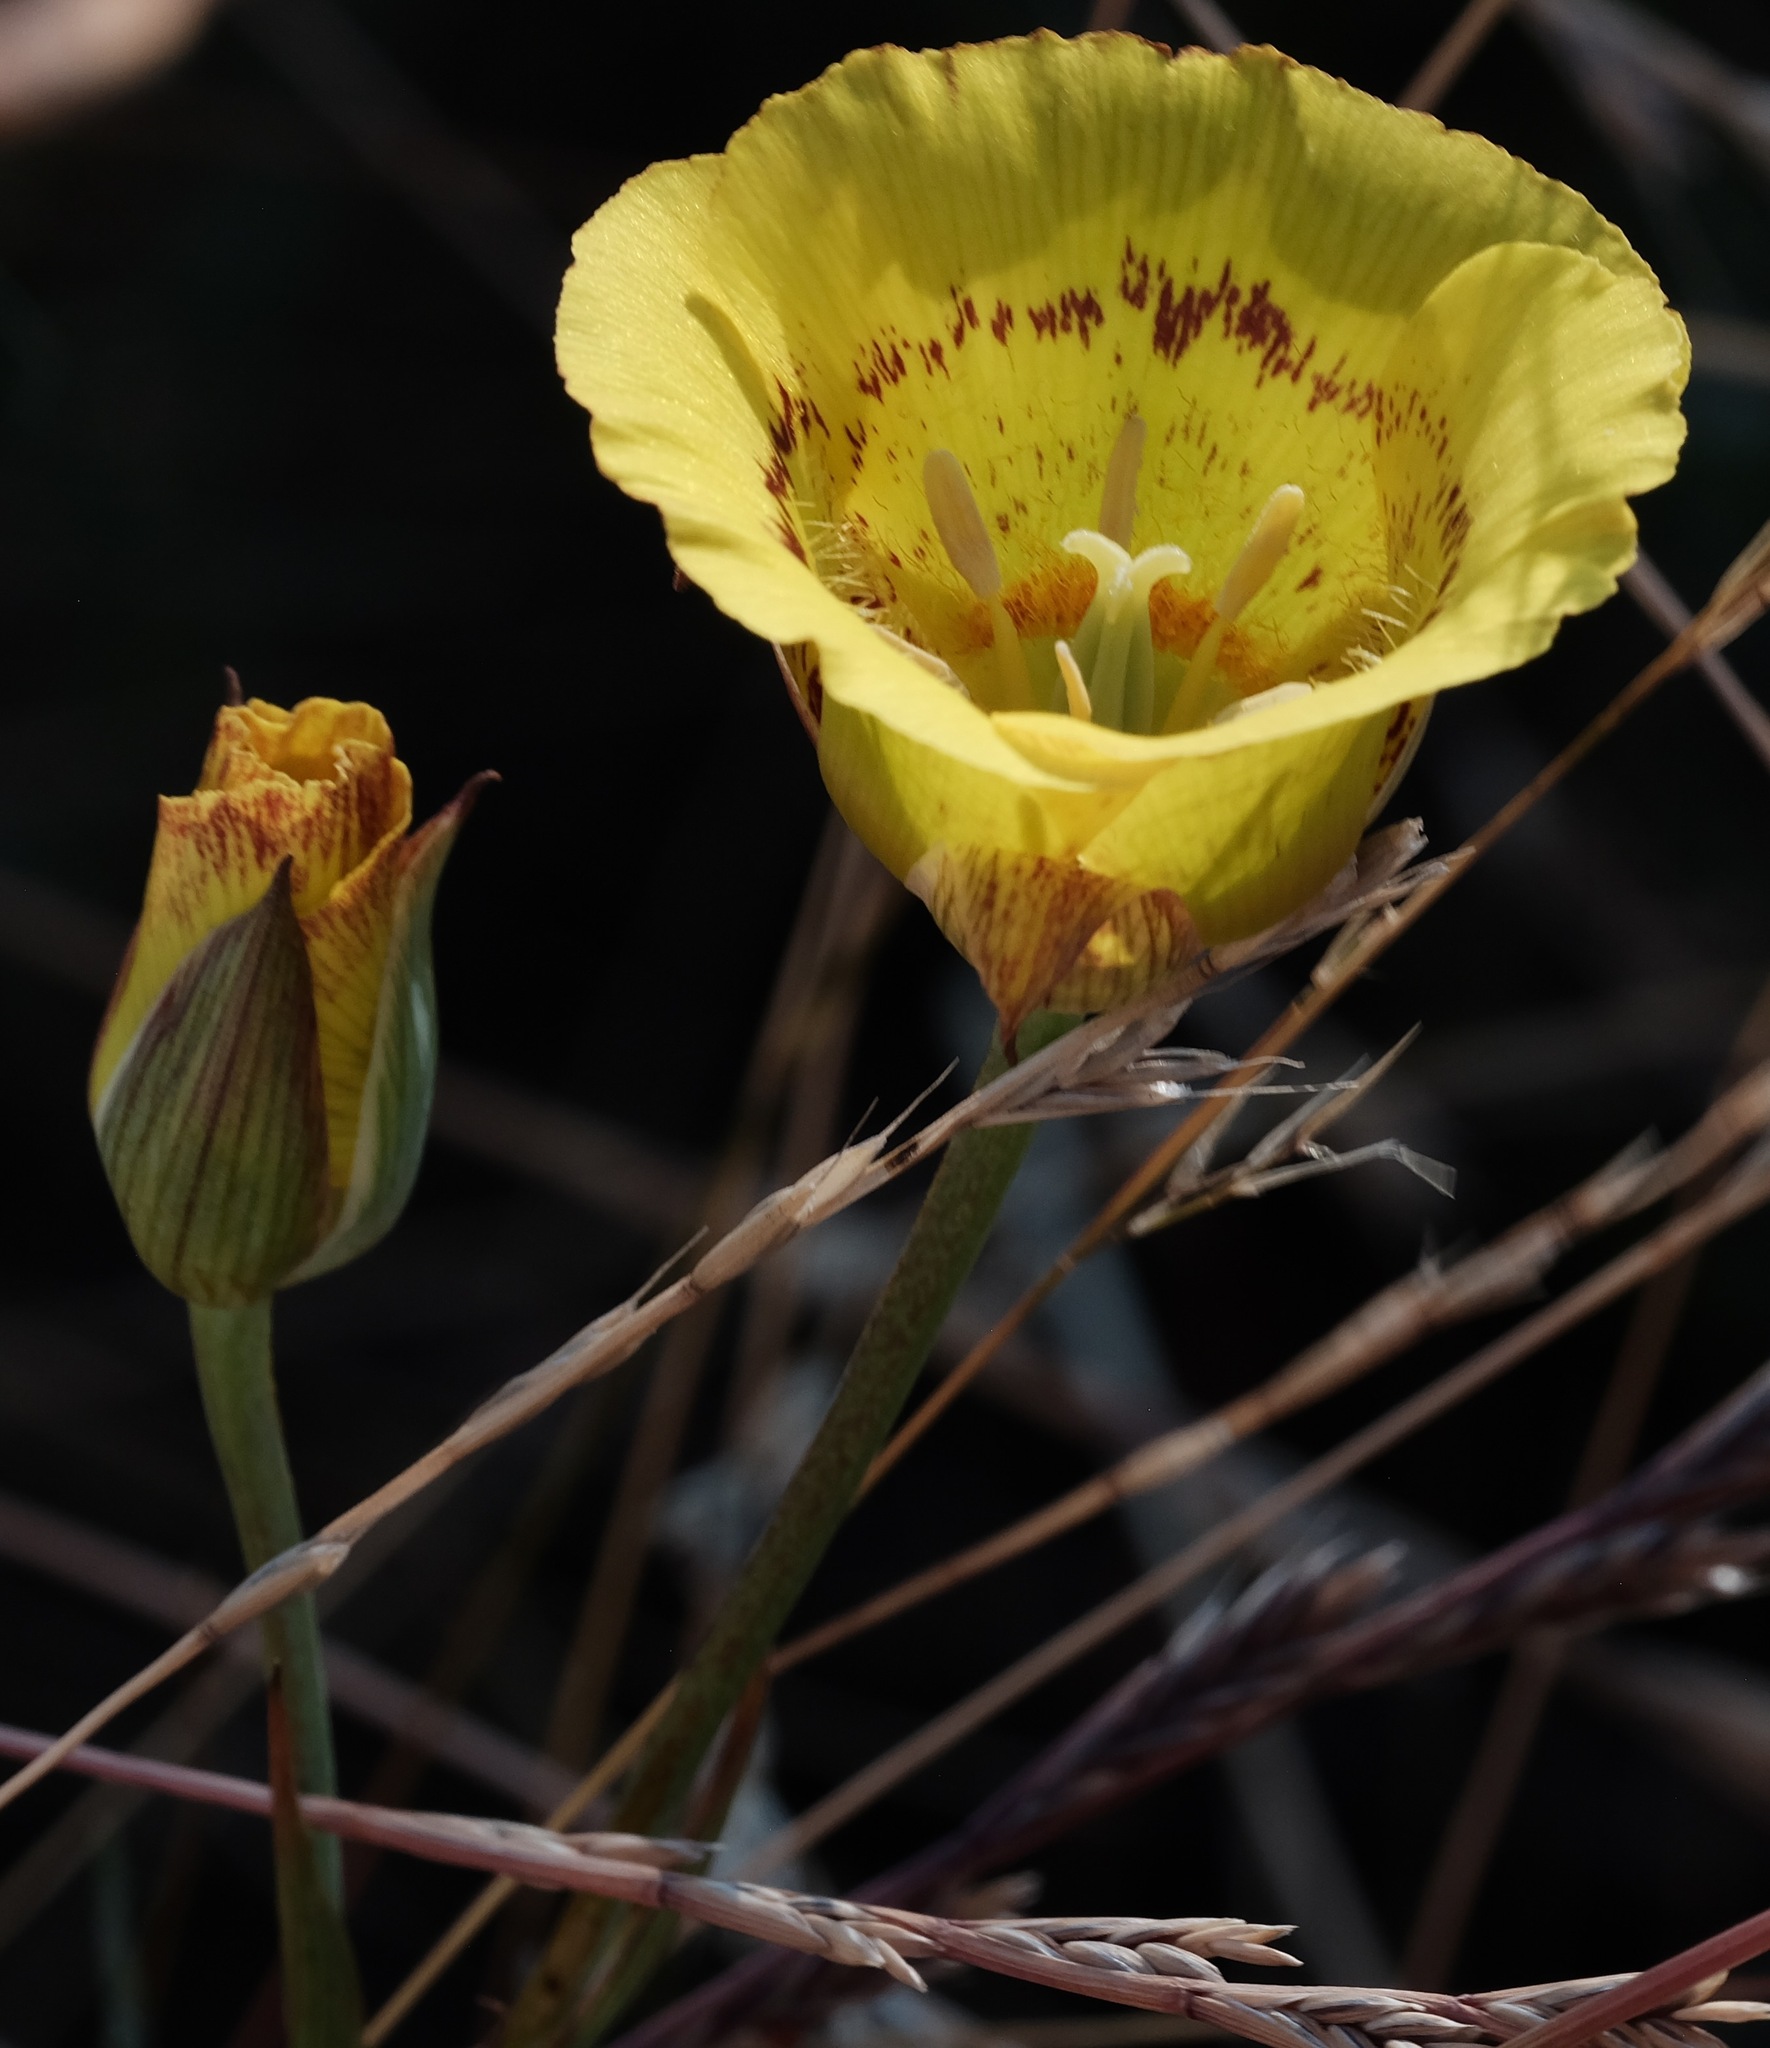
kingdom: Plantae
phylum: Tracheophyta
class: Liliopsida
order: Liliales
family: Liliaceae
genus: Calochortus
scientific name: Calochortus luteus
